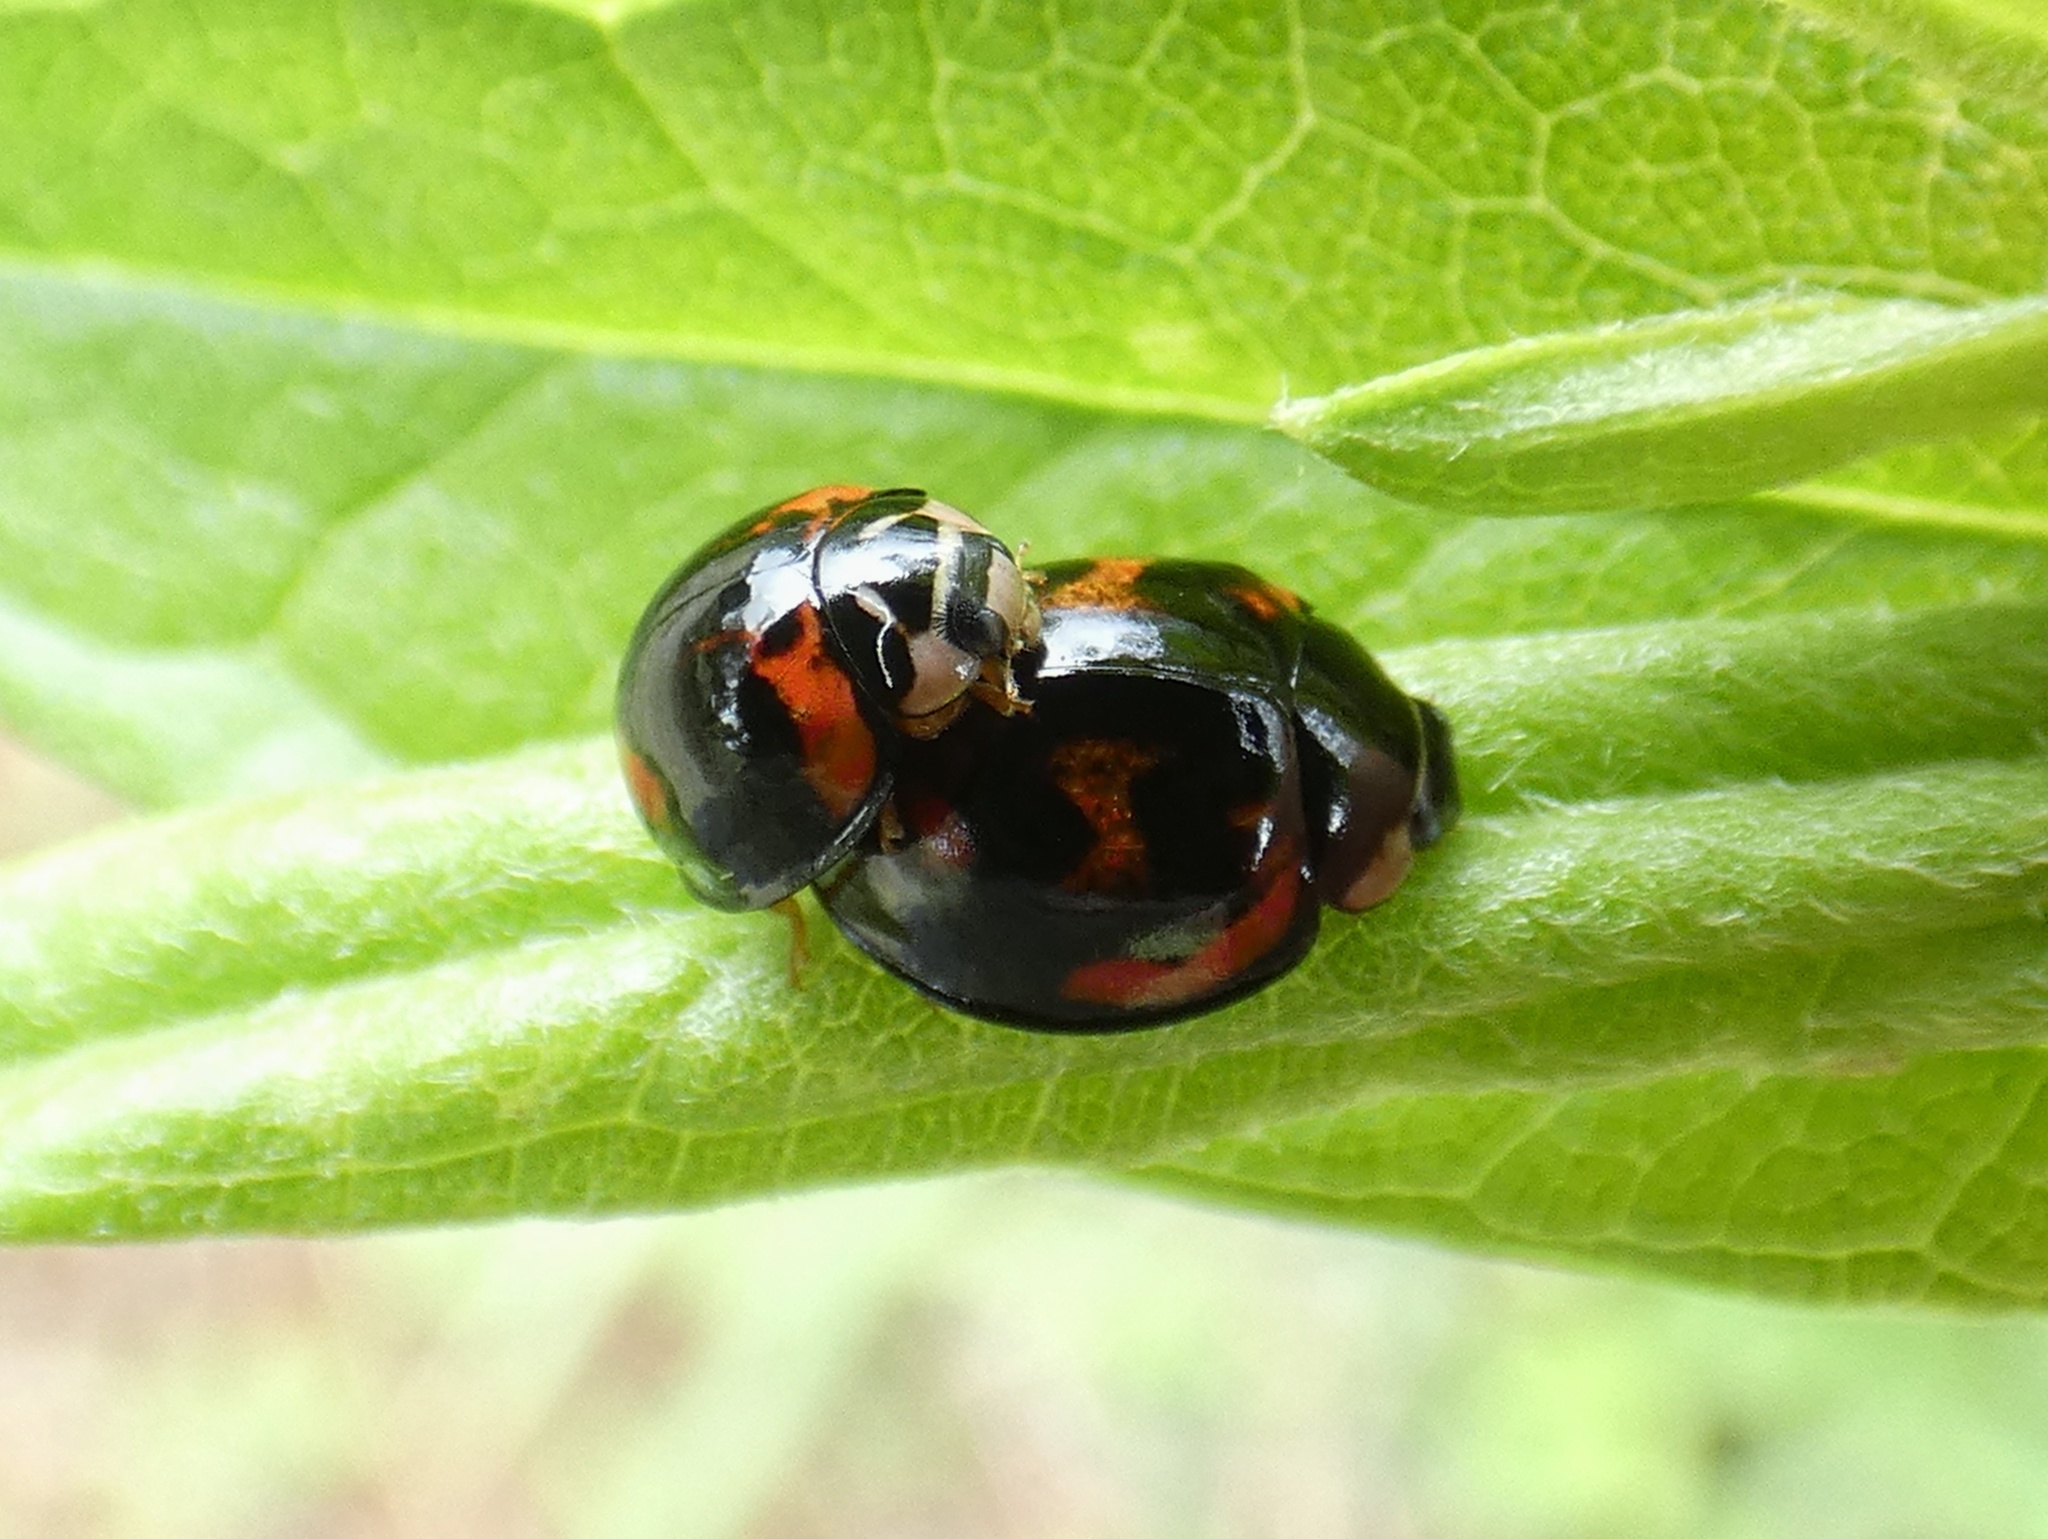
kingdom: Animalia
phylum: Arthropoda
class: Insecta
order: Coleoptera
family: Coccinellidae
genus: Cheilomenes
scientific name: Cheilomenes sexmaculata
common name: Ladybird beetle
